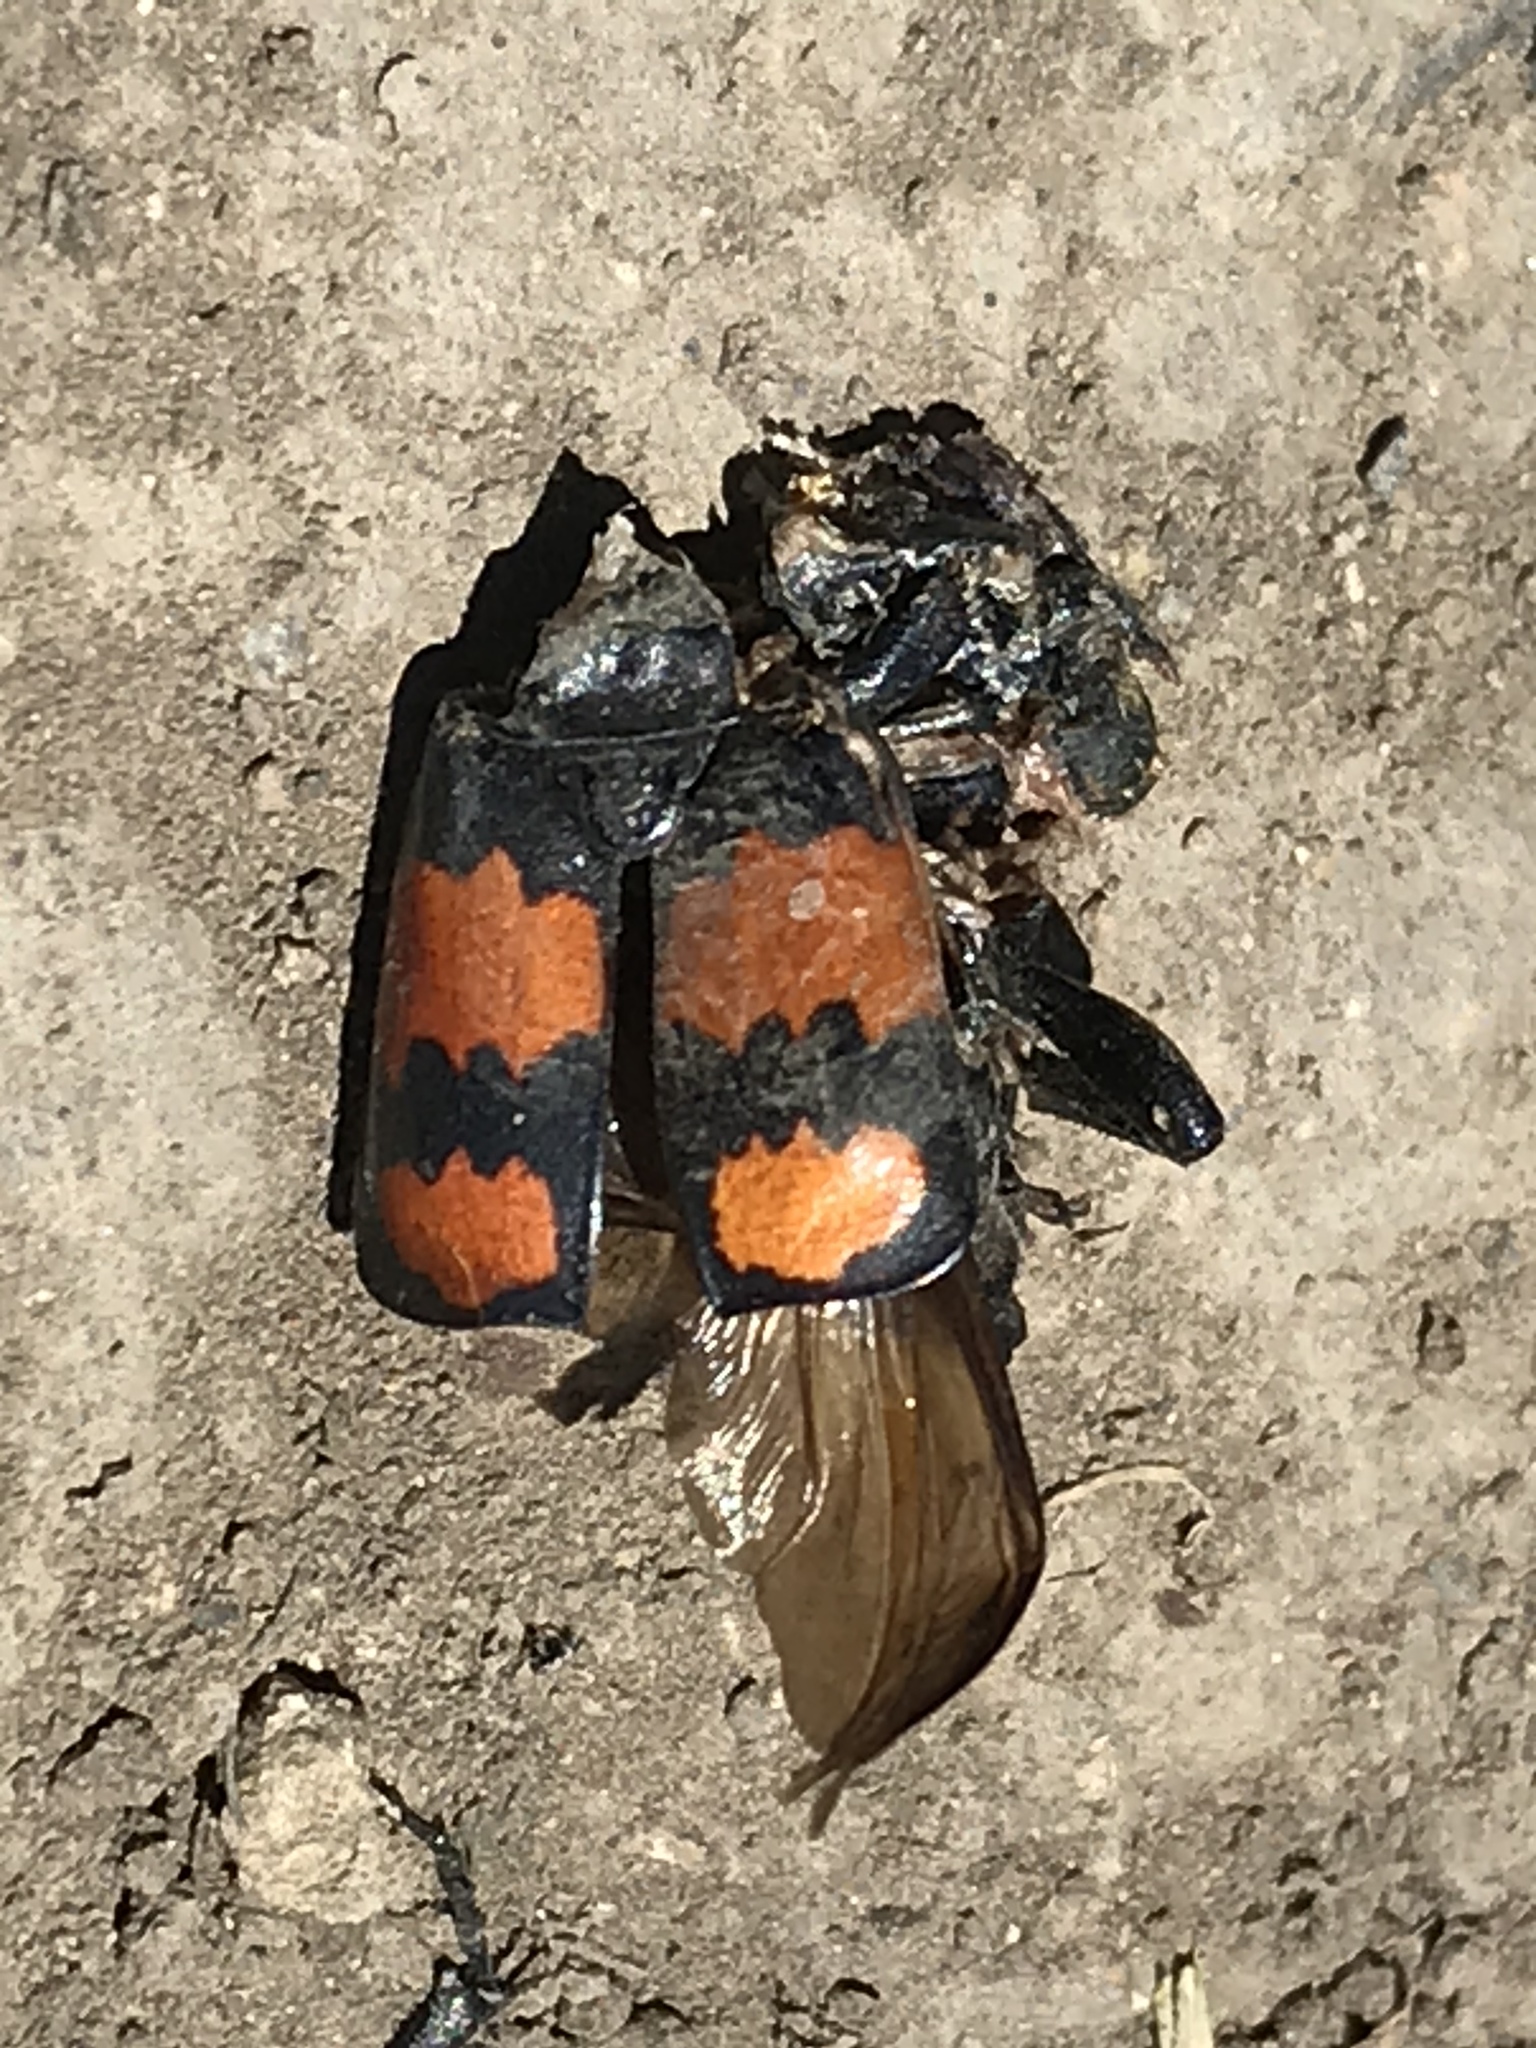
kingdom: Animalia
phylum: Arthropoda
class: Insecta
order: Coleoptera
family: Staphylinidae
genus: Nicrophorus
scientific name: Nicrophorus defodiens
